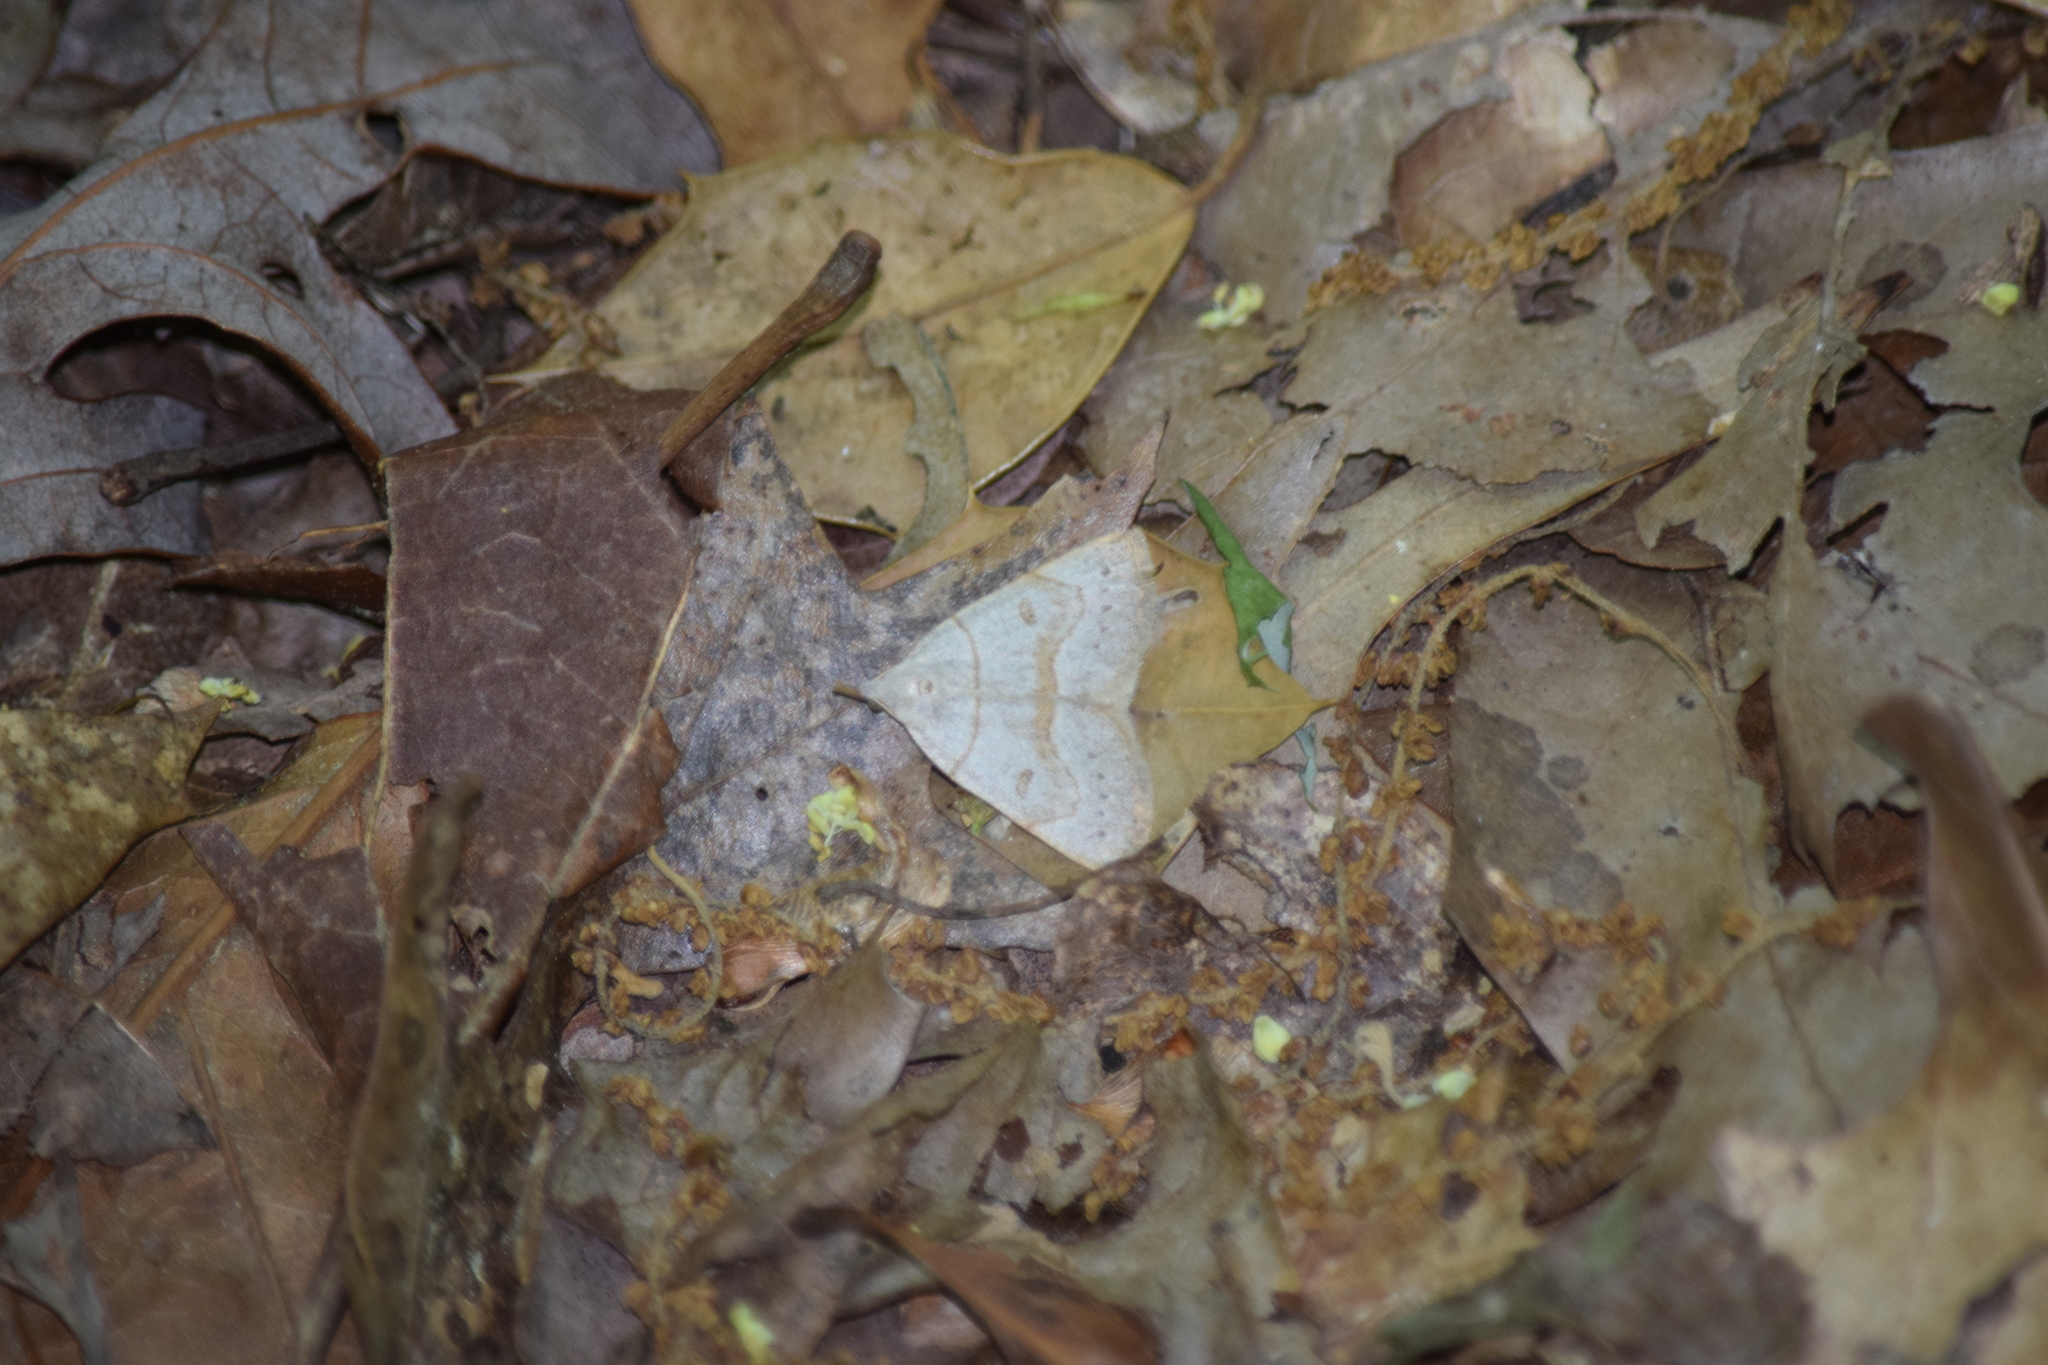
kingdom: Animalia
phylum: Arthropoda
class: Insecta
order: Lepidoptera
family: Erebidae
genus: Macrochilo
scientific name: Macrochilo morbidalis
